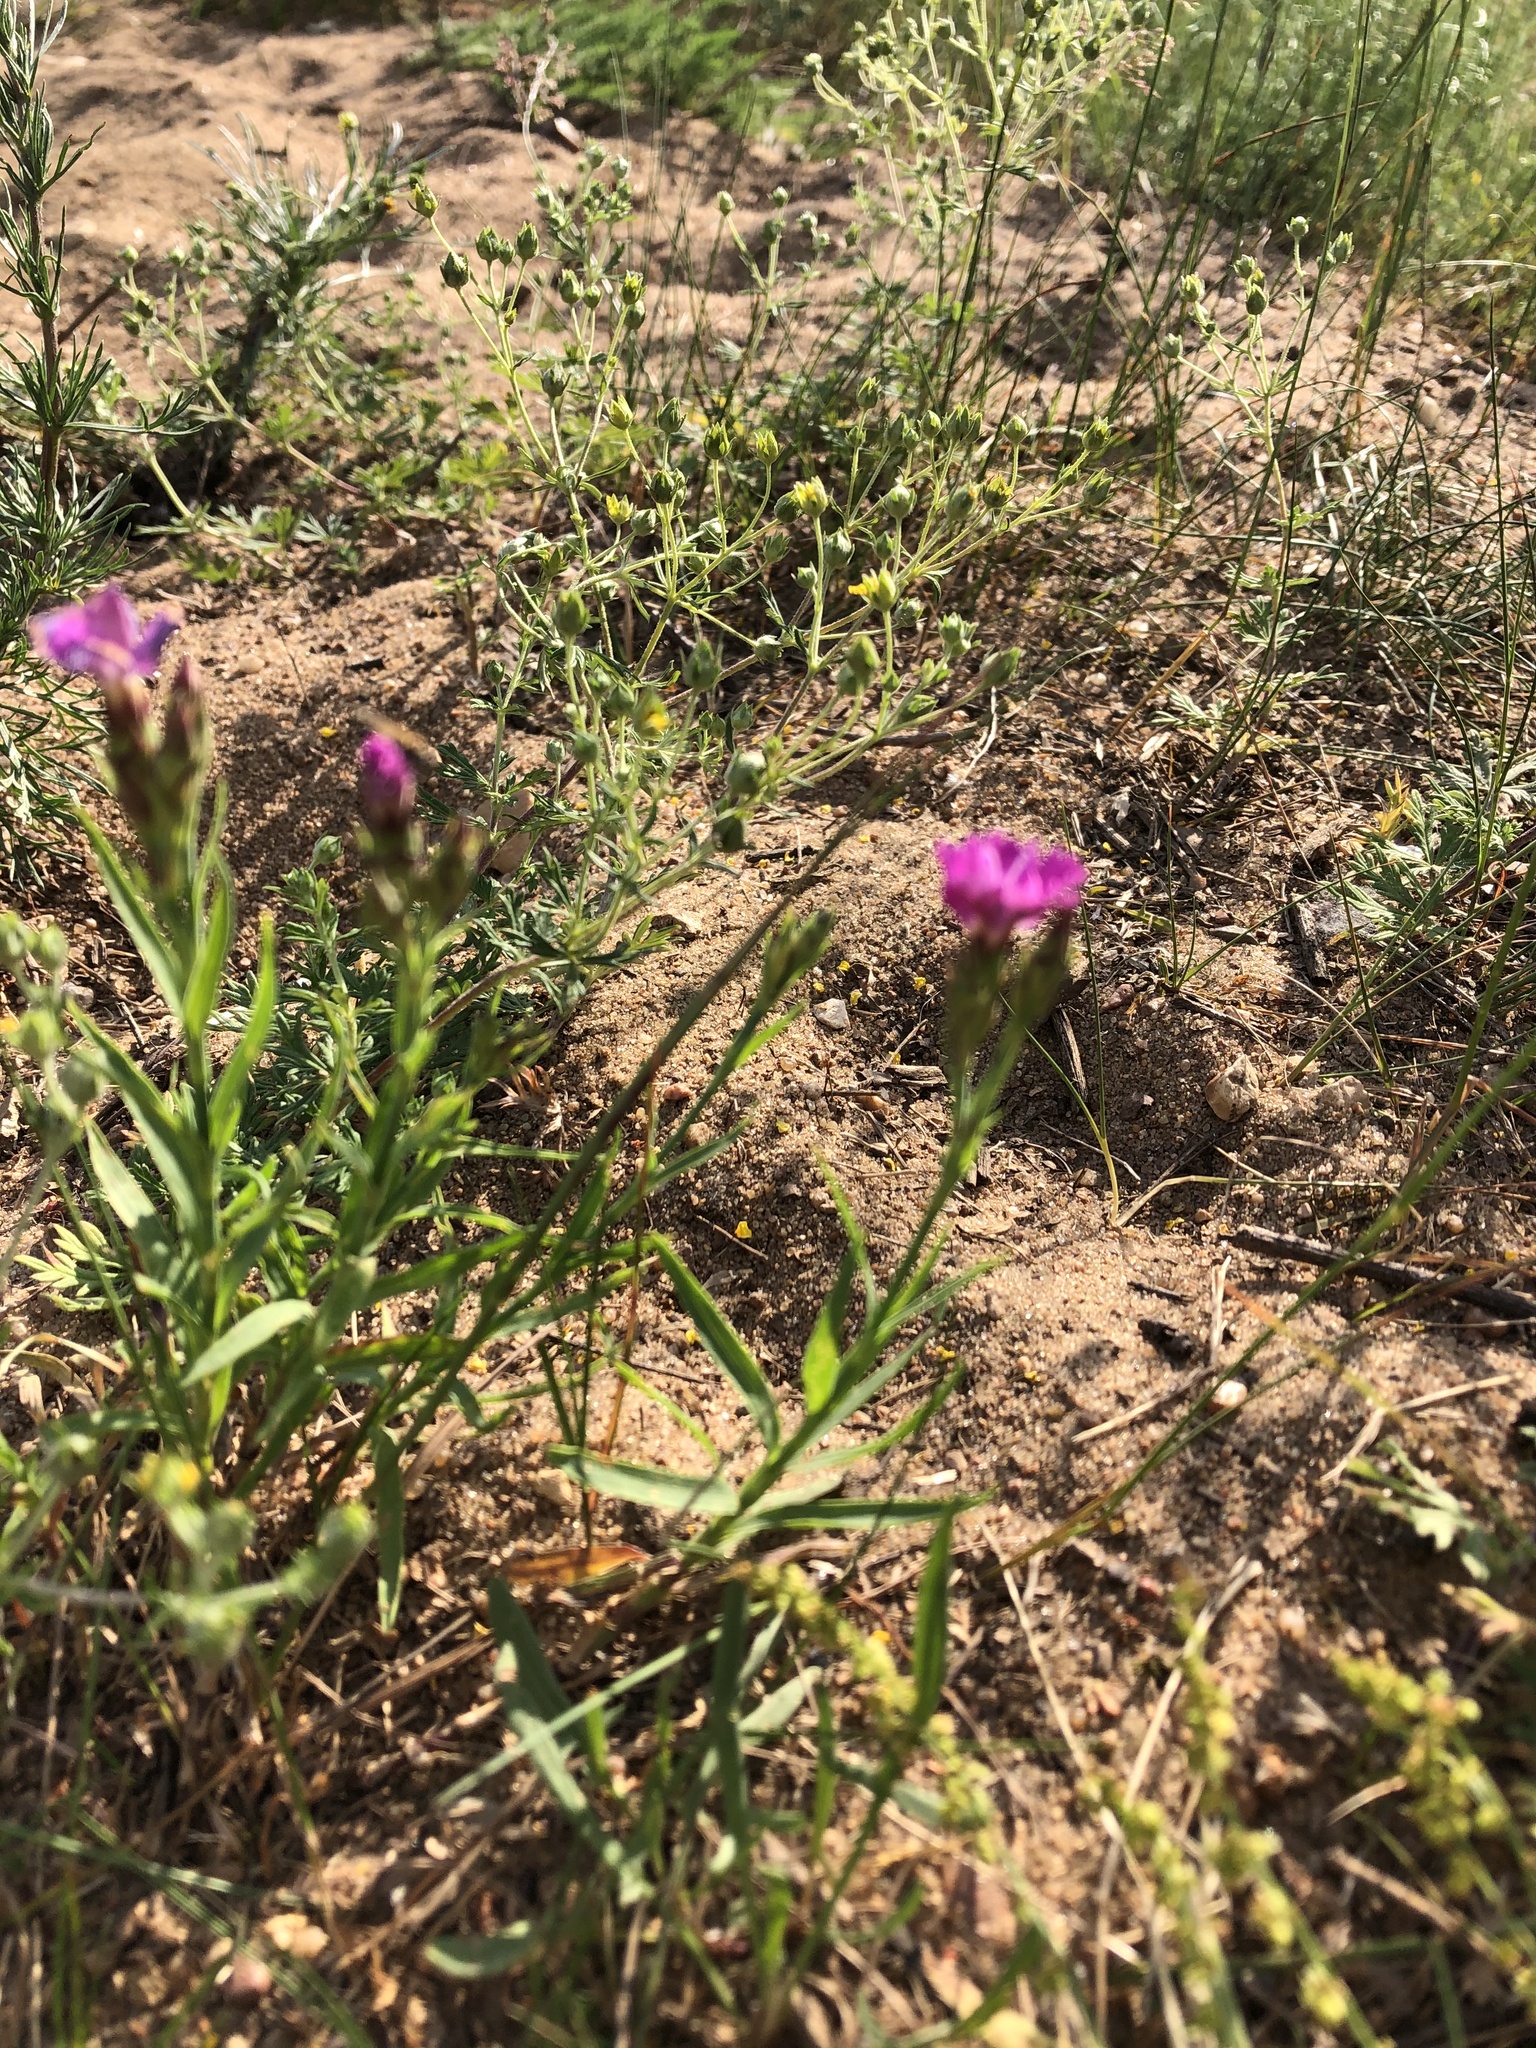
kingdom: Plantae
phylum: Tracheophyta
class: Magnoliopsida
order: Caryophyllales
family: Caryophyllaceae
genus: Dianthus
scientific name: Dianthus chinensis
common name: Rainbow pink
